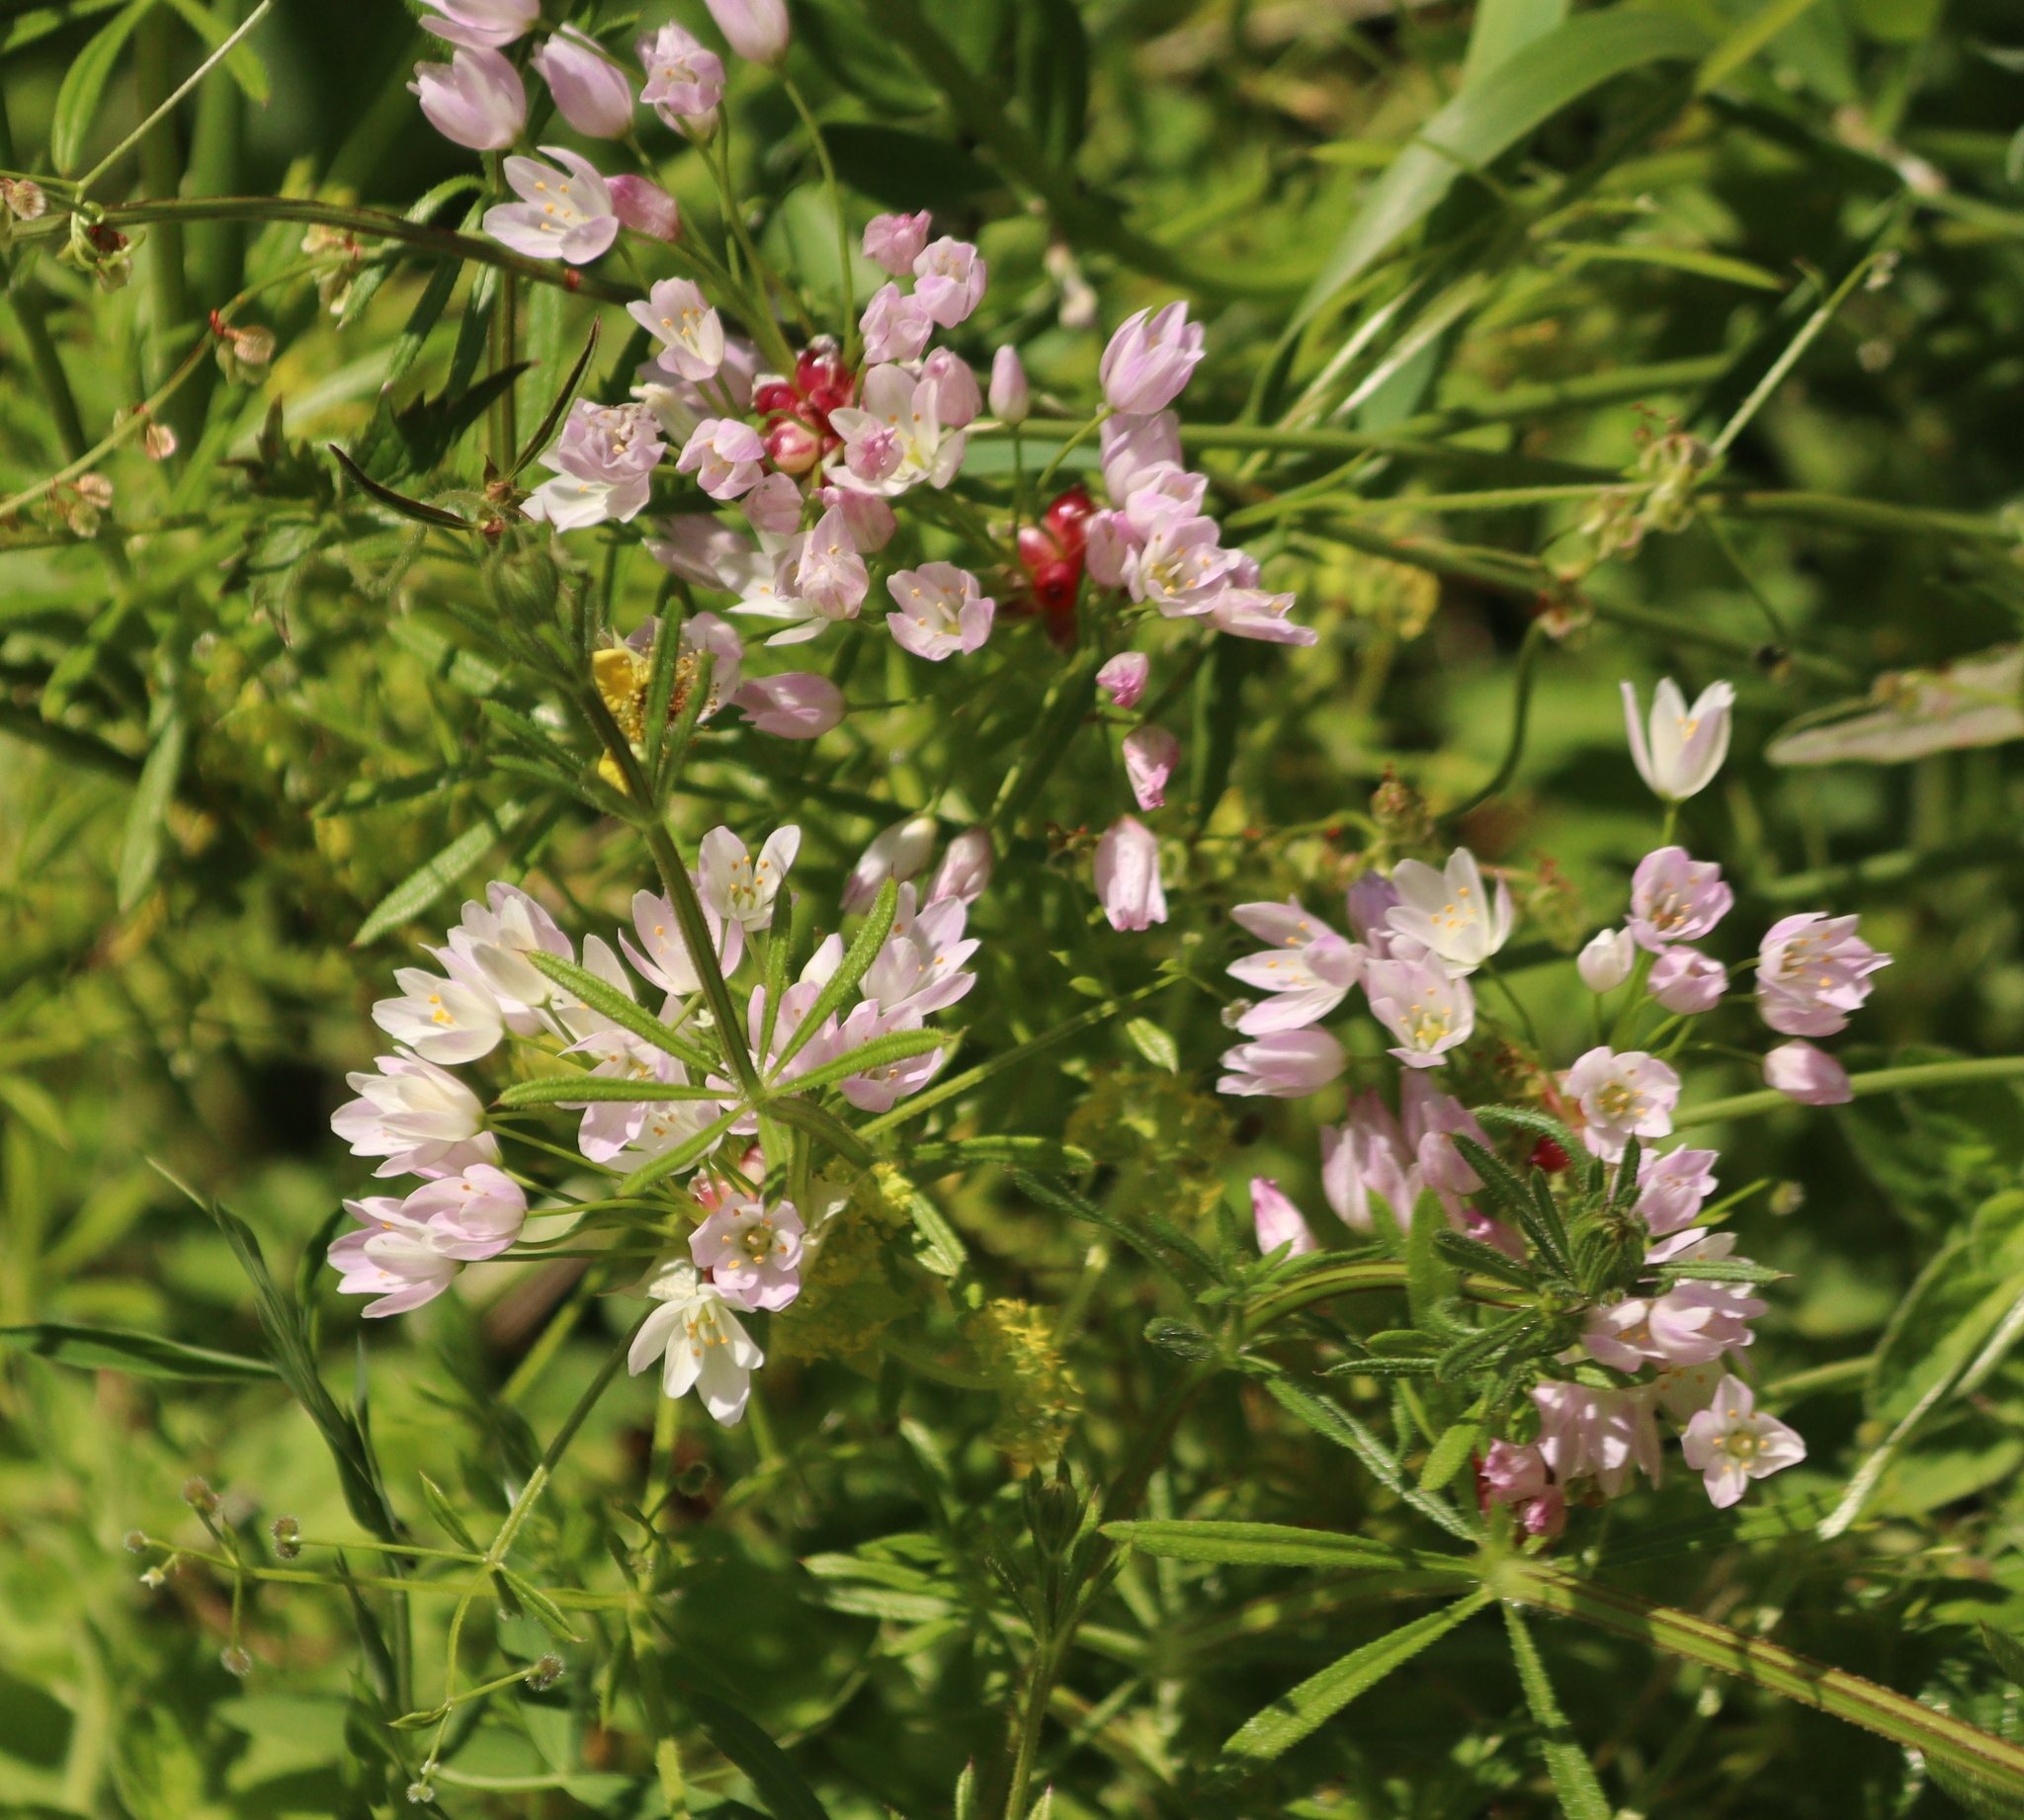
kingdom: Plantae
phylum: Tracheophyta
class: Liliopsida
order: Asparagales
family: Amaryllidaceae
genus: Allium
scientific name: Allium roseum
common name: Rosy garlic
